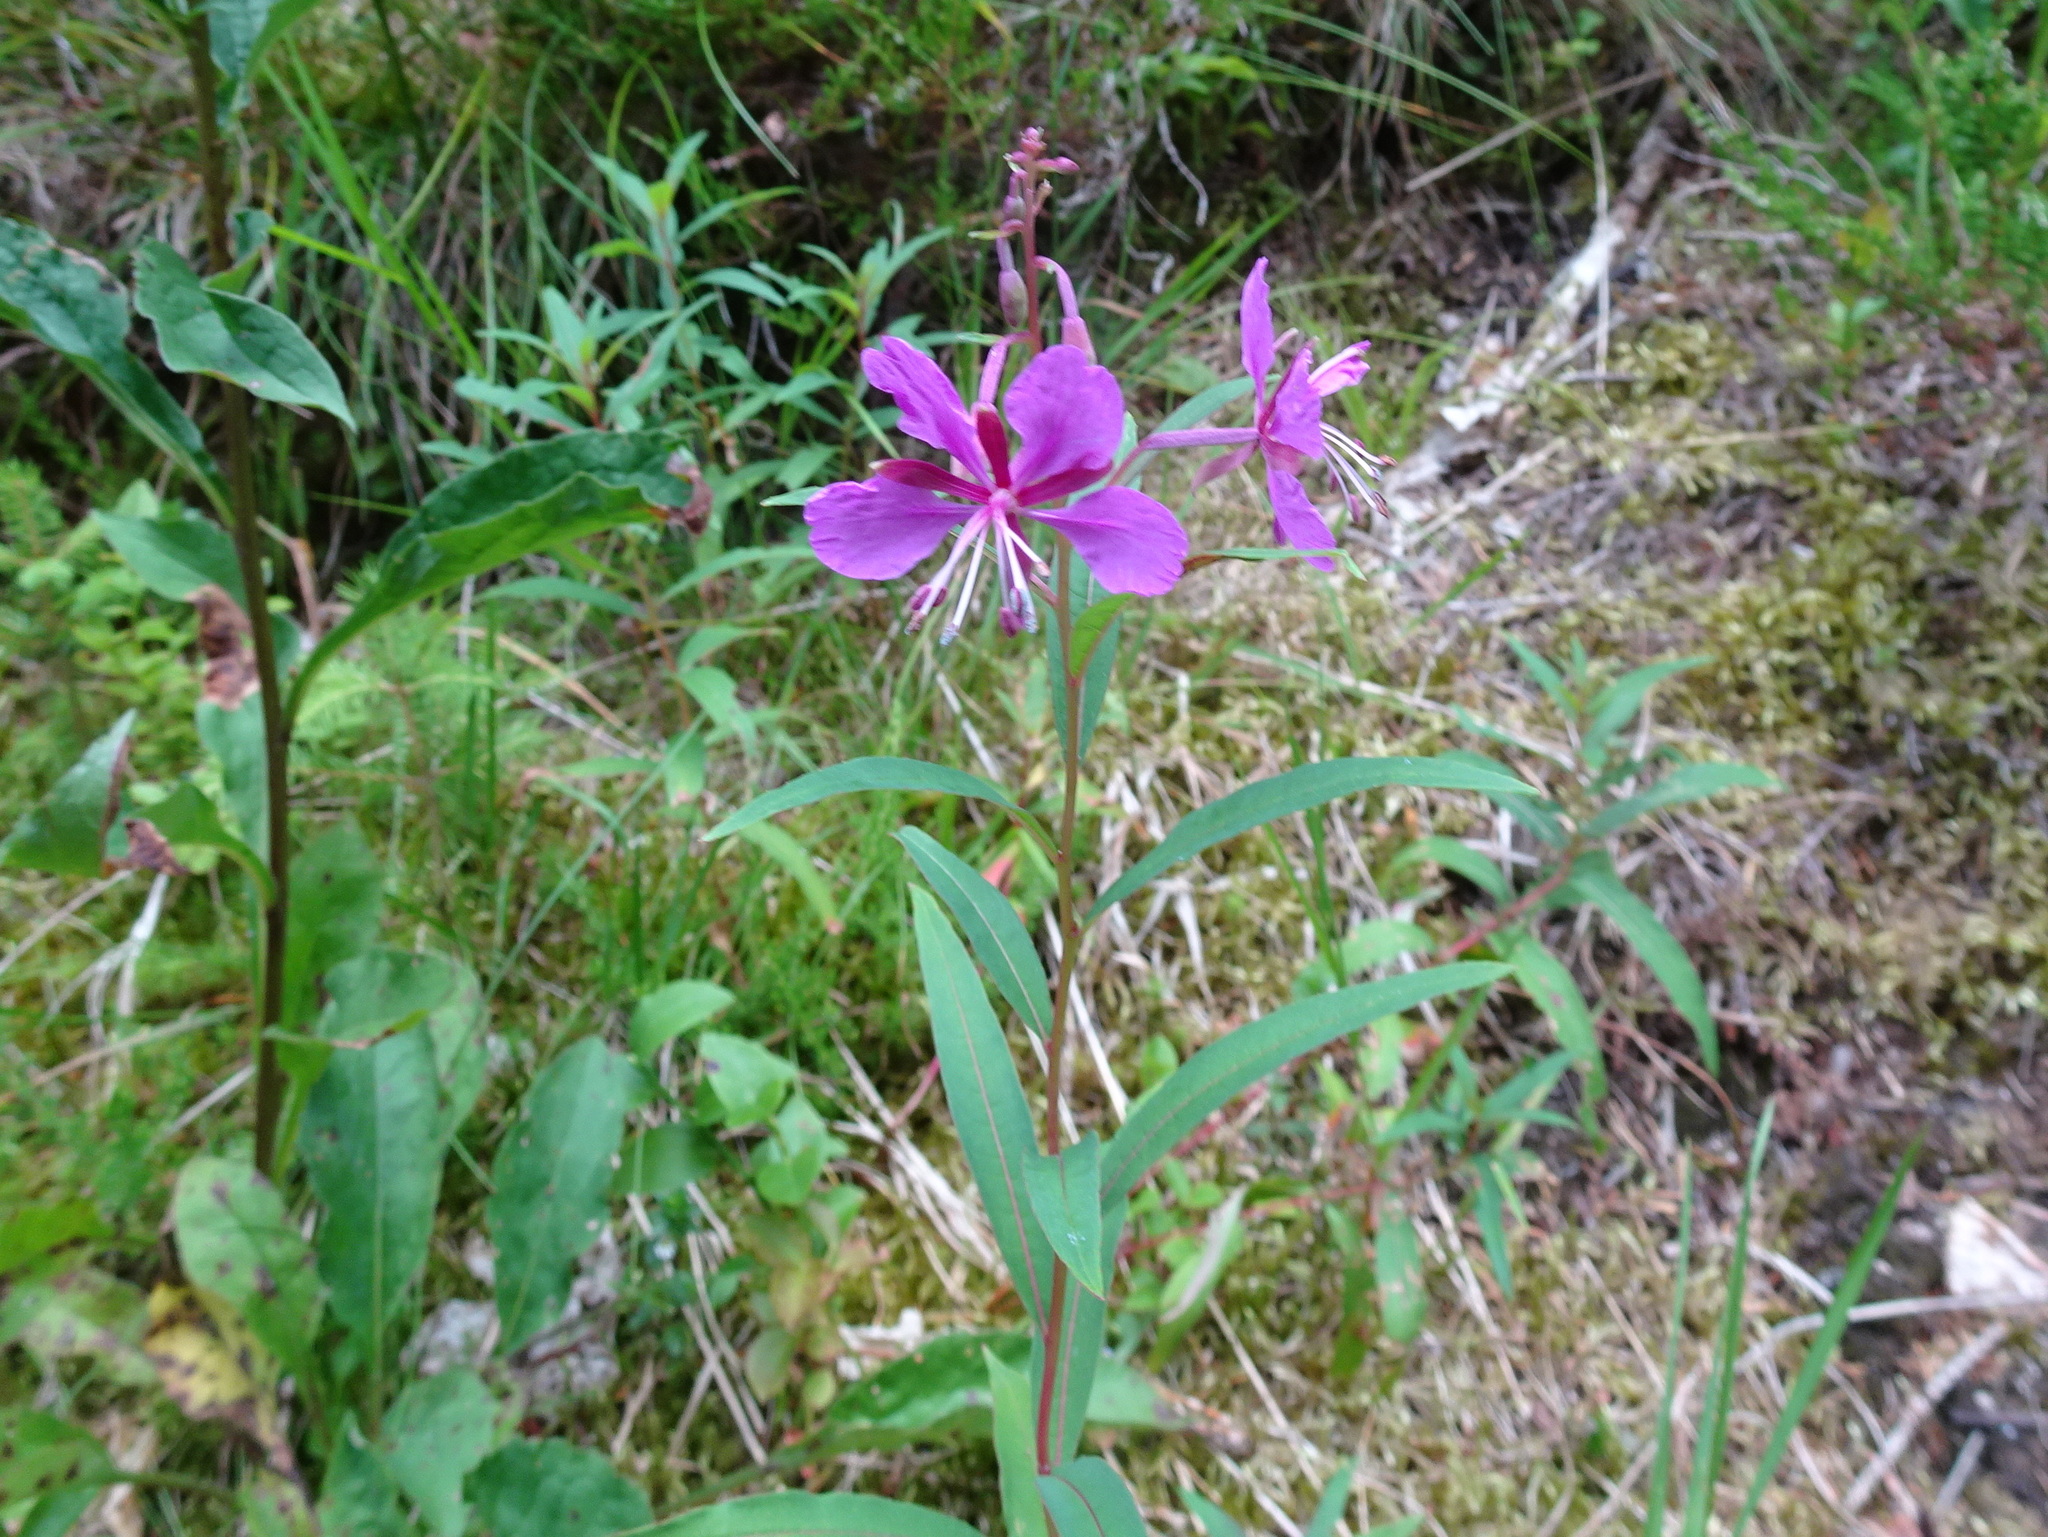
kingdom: Plantae
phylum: Tracheophyta
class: Magnoliopsida
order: Myrtales
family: Onagraceae
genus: Chamaenerion
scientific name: Chamaenerion angustifolium
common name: Fireweed
